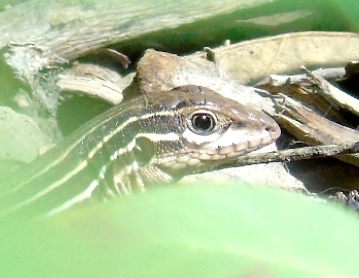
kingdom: Animalia
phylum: Chordata
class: Squamata
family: Teiidae
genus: Aspidoscelis
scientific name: Aspidoscelis costatus
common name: Western mexico whiptail
